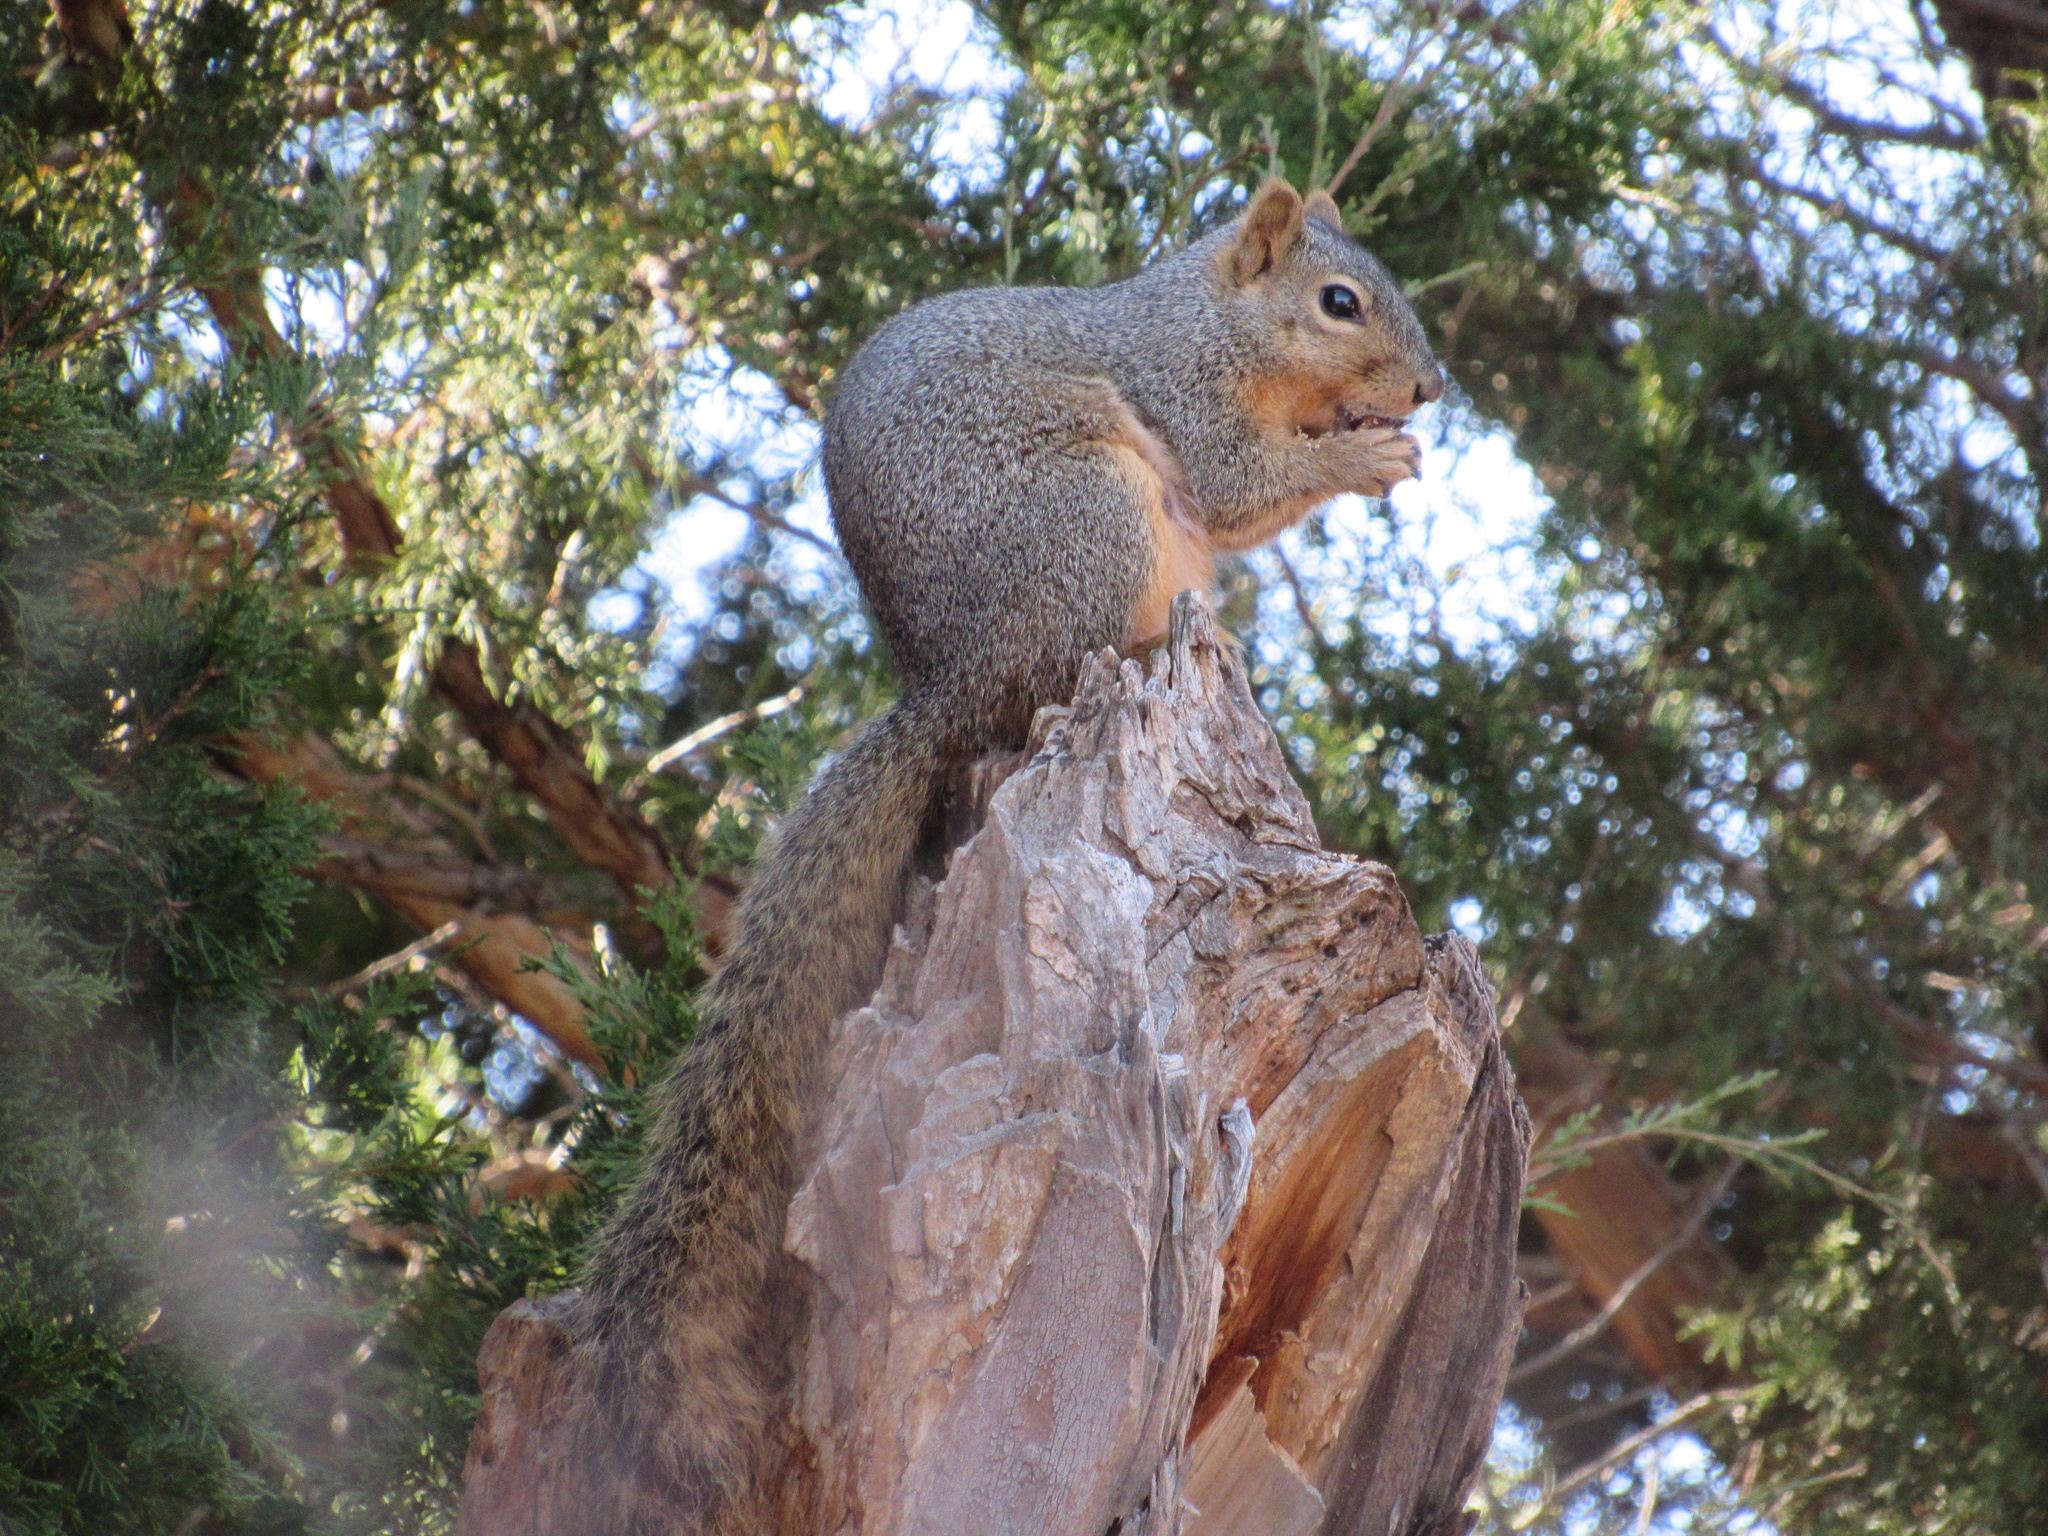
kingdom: Animalia
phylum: Chordata
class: Mammalia
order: Rodentia
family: Sciuridae
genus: Sciurus
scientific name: Sciurus niger
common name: Fox squirrel
